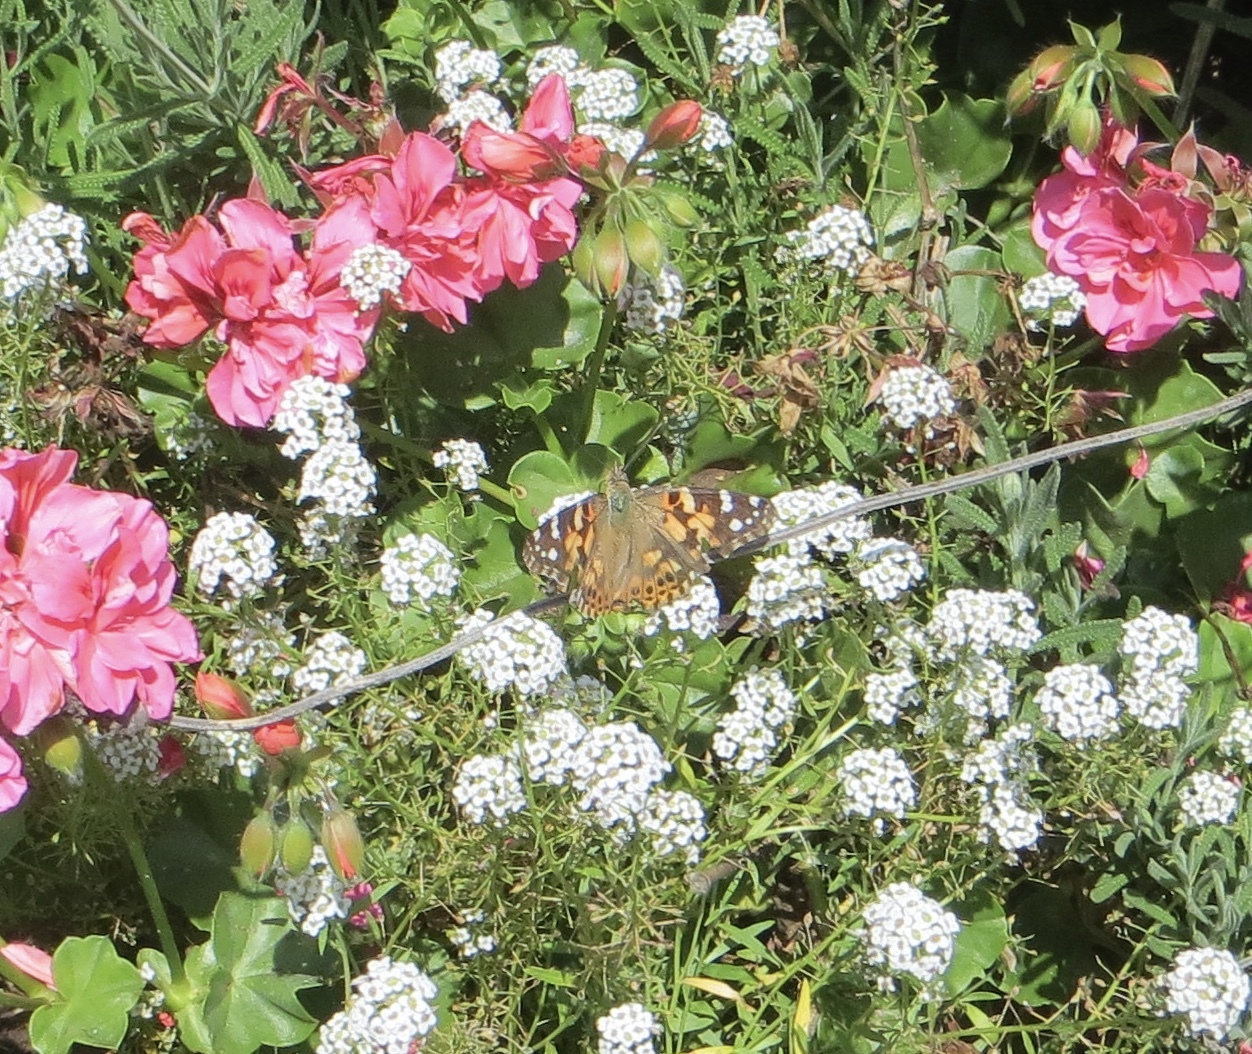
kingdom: Animalia
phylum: Arthropoda
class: Insecta
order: Lepidoptera
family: Nymphalidae
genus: Vanessa
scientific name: Vanessa cardui
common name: Painted lady
